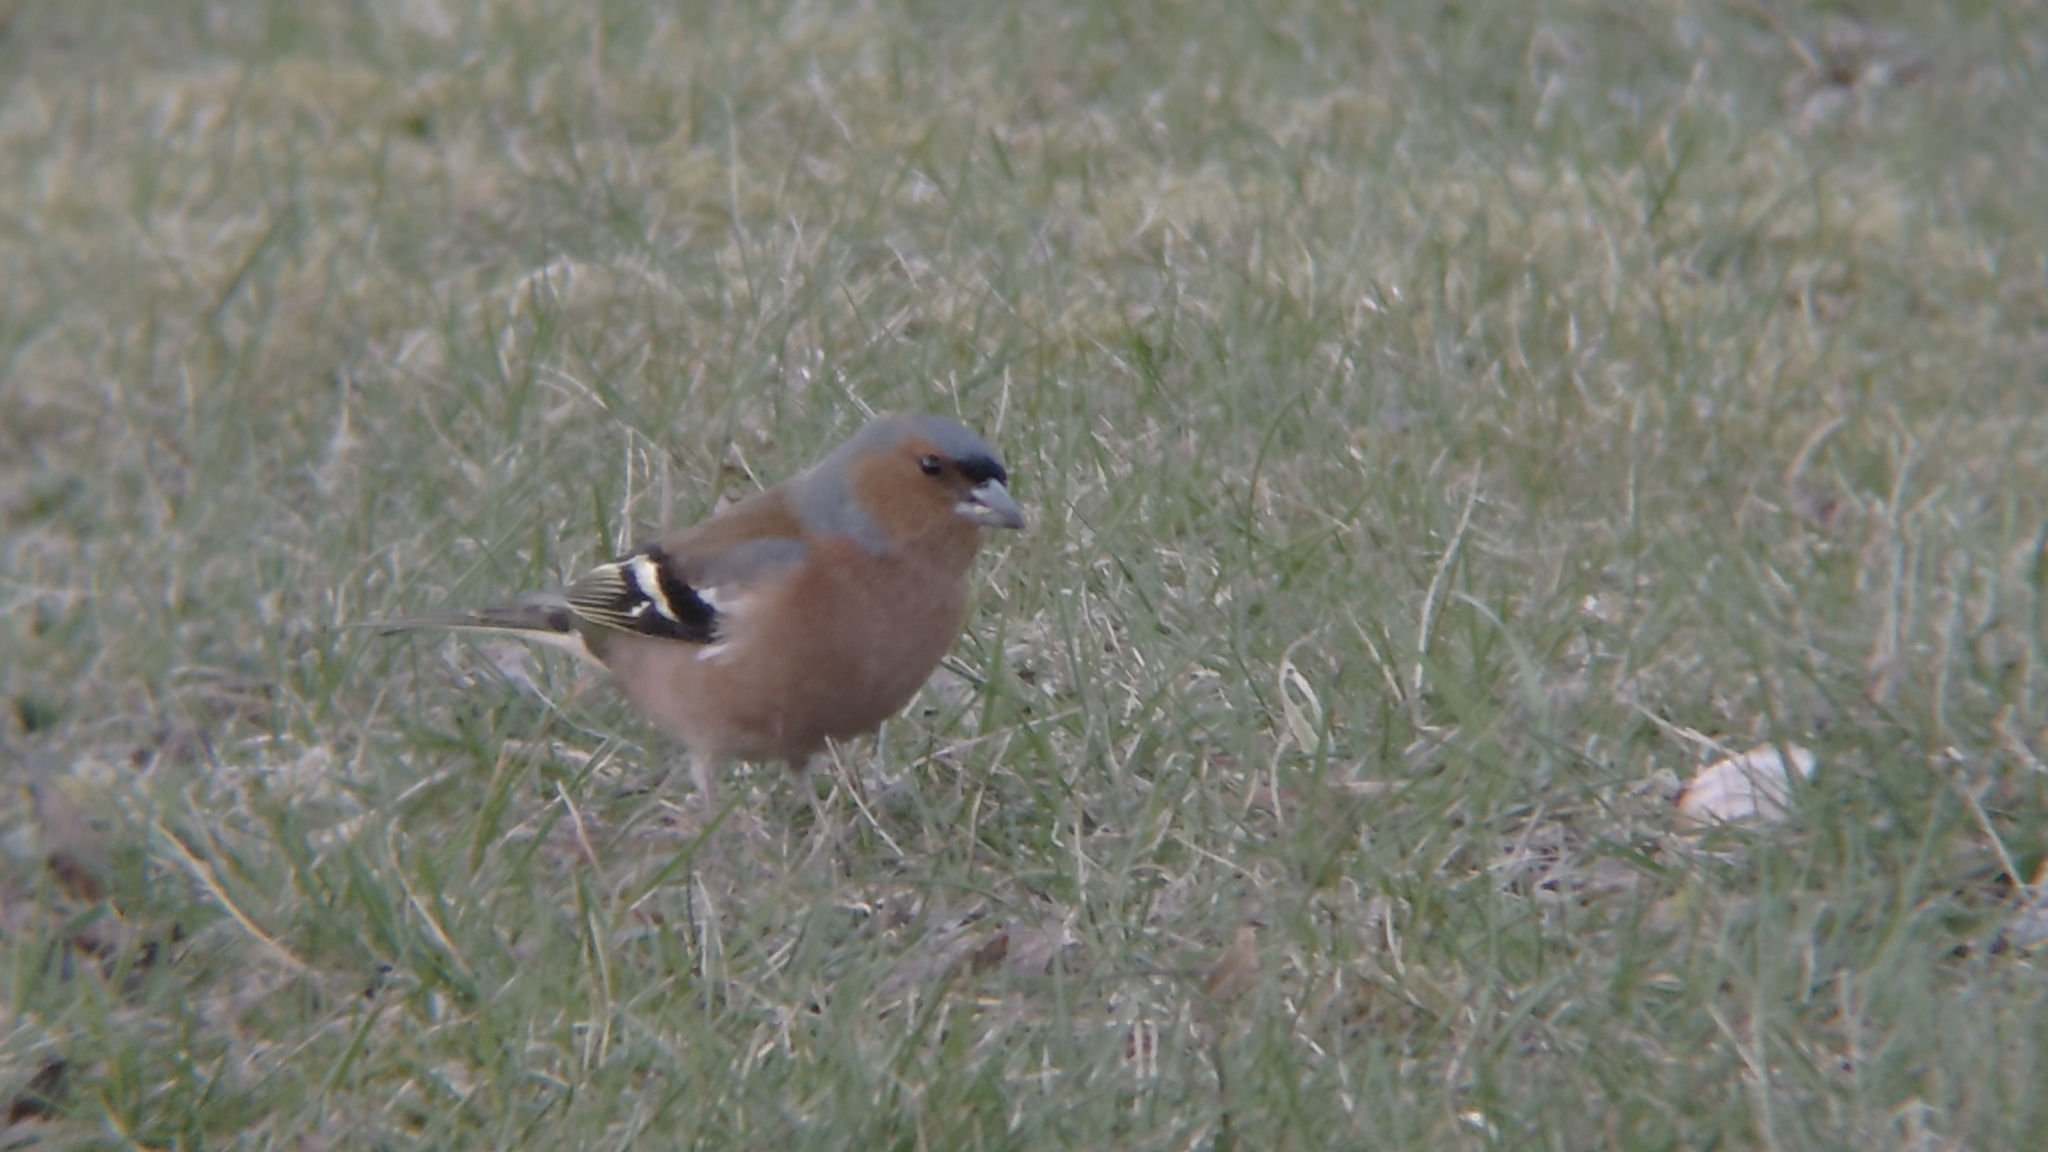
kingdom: Animalia
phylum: Chordata
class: Aves
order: Passeriformes
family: Fringillidae
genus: Fringilla
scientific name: Fringilla coelebs
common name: Common chaffinch
